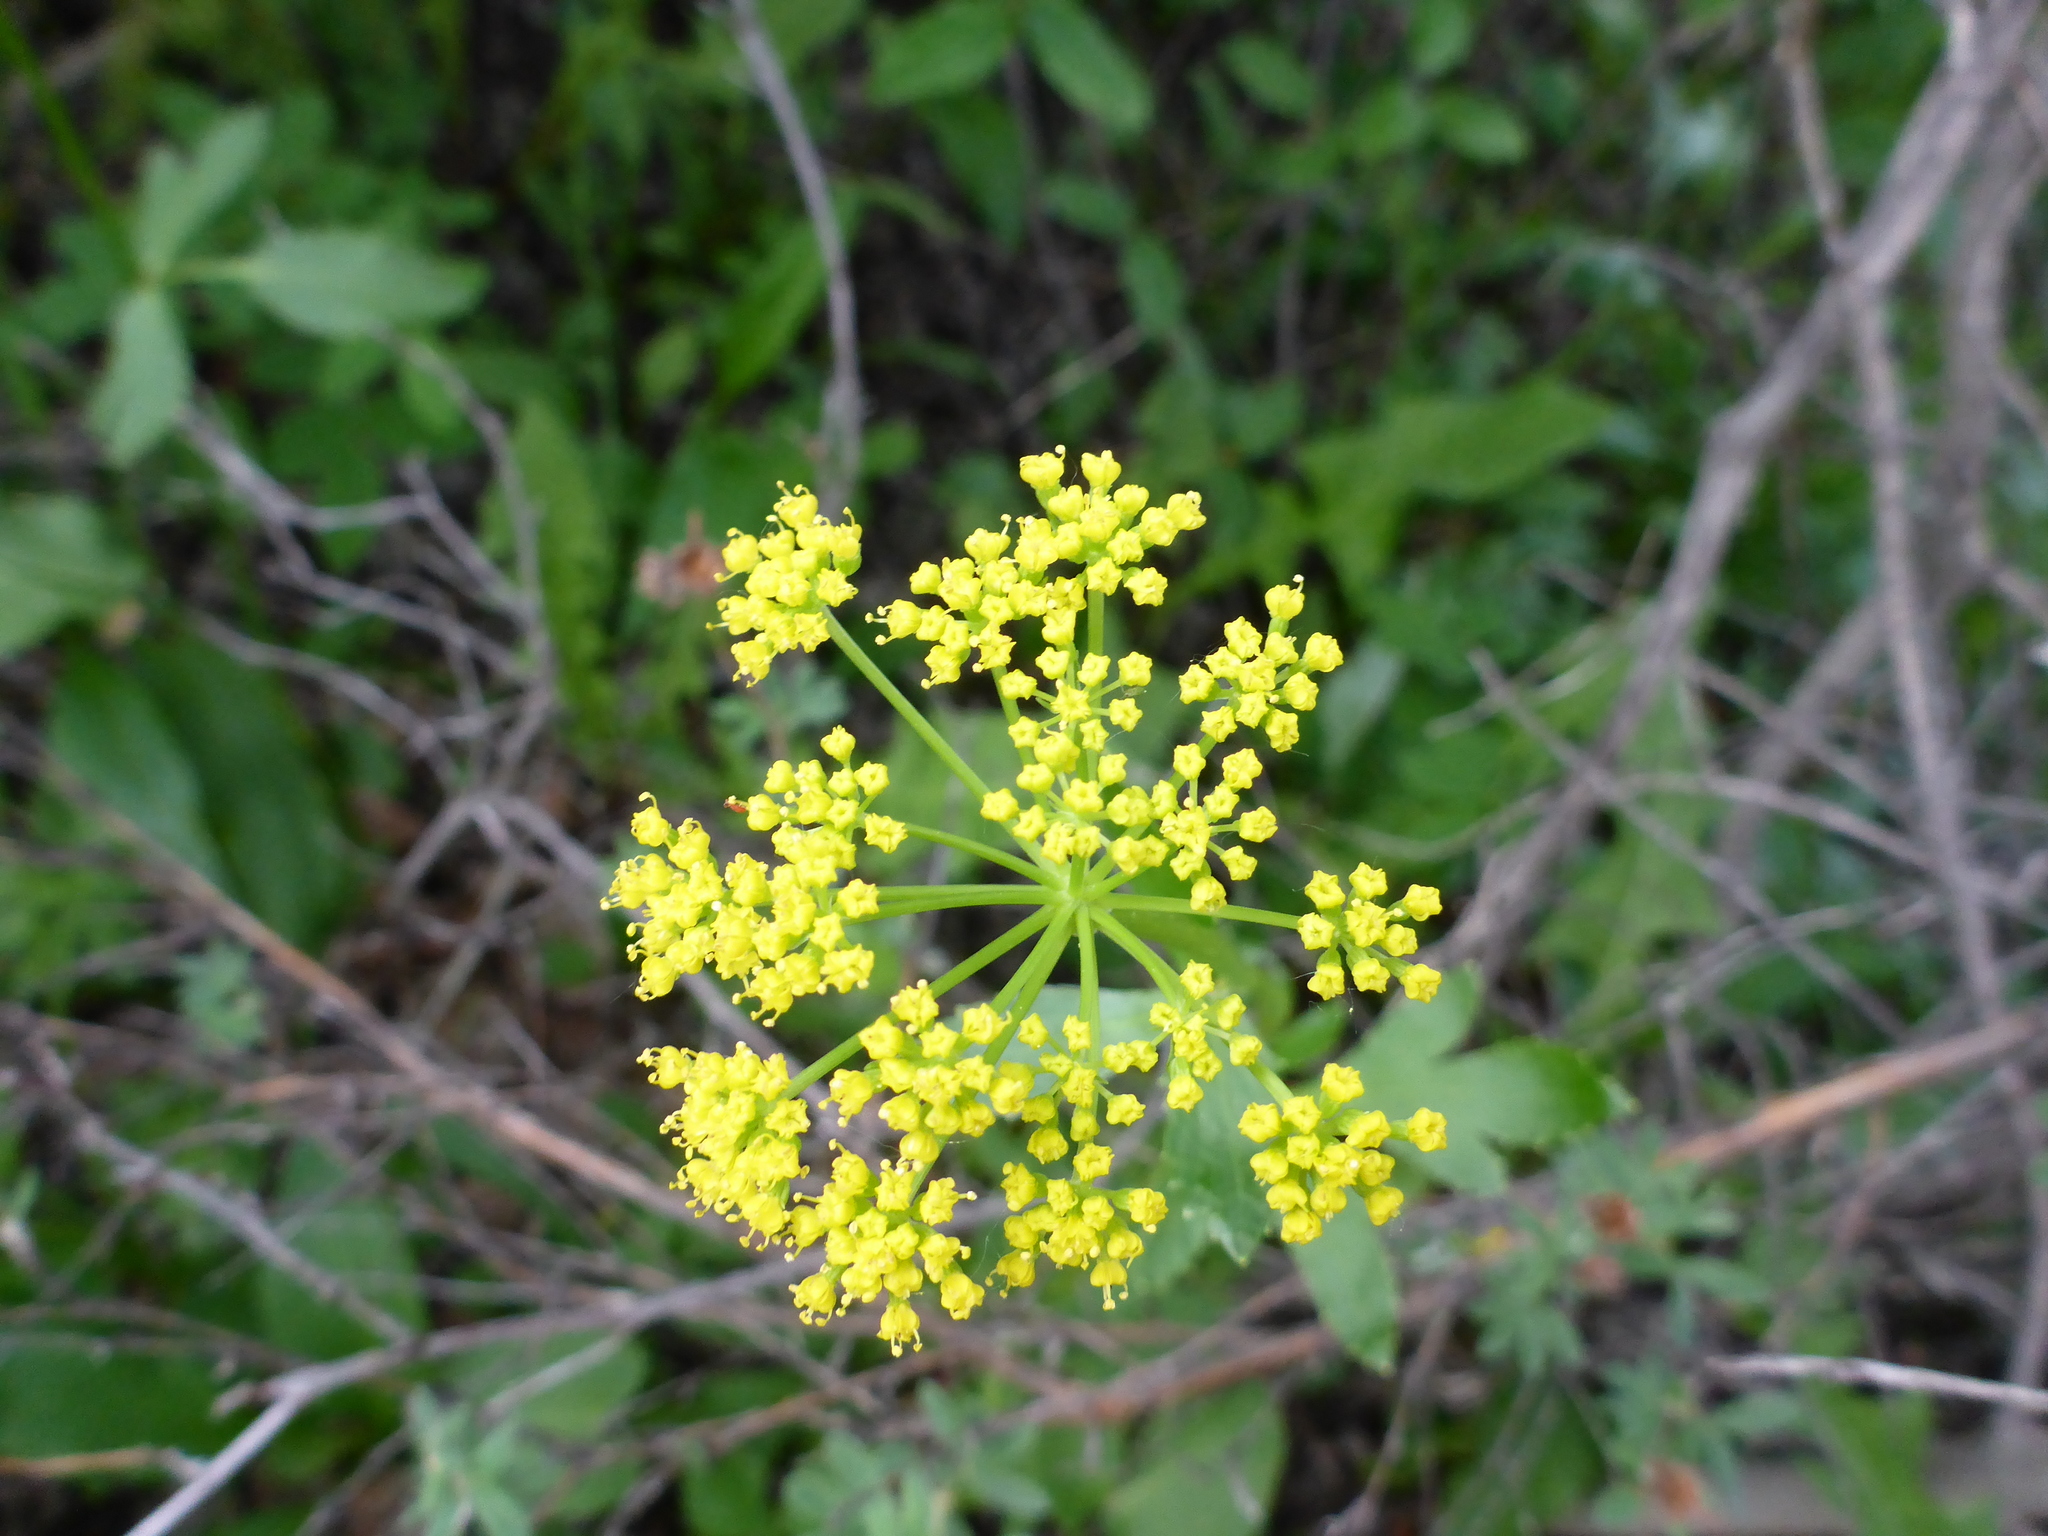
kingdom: Plantae
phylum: Tracheophyta
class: Magnoliopsida
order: Apiales
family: Apiaceae
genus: Zizia
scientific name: Zizia aptera
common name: Heart-leaved alexanders
